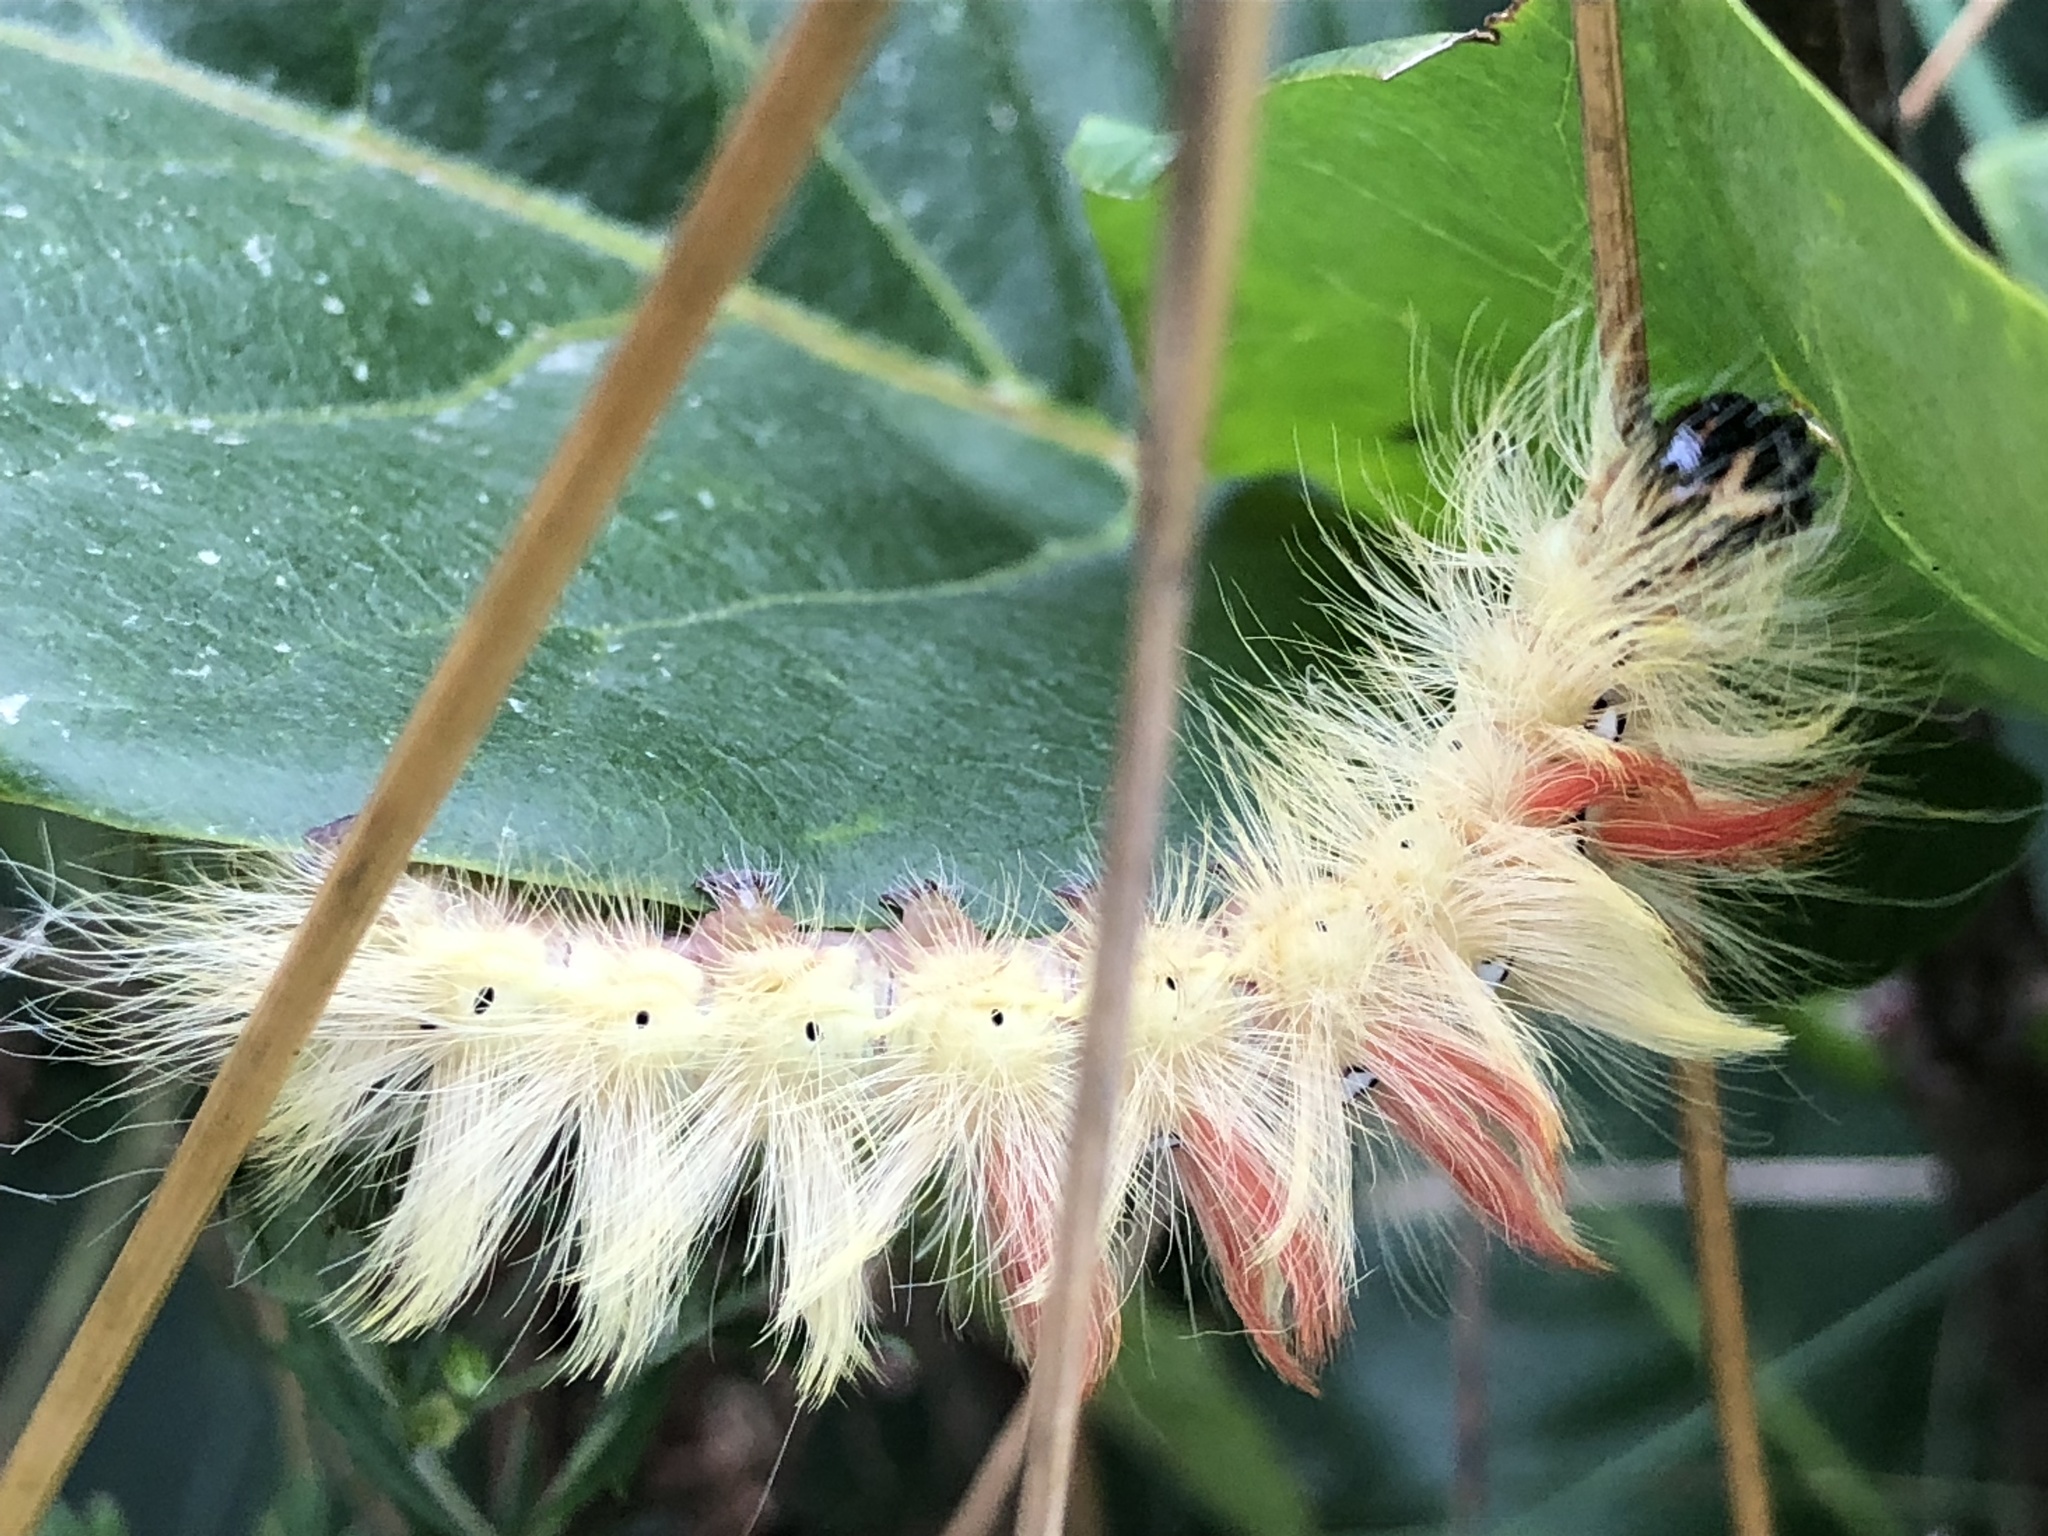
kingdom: Animalia
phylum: Arthropoda
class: Insecta
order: Lepidoptera
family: Noctuidae
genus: Acronicta
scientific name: Acronicta aceris
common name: Sycamore
